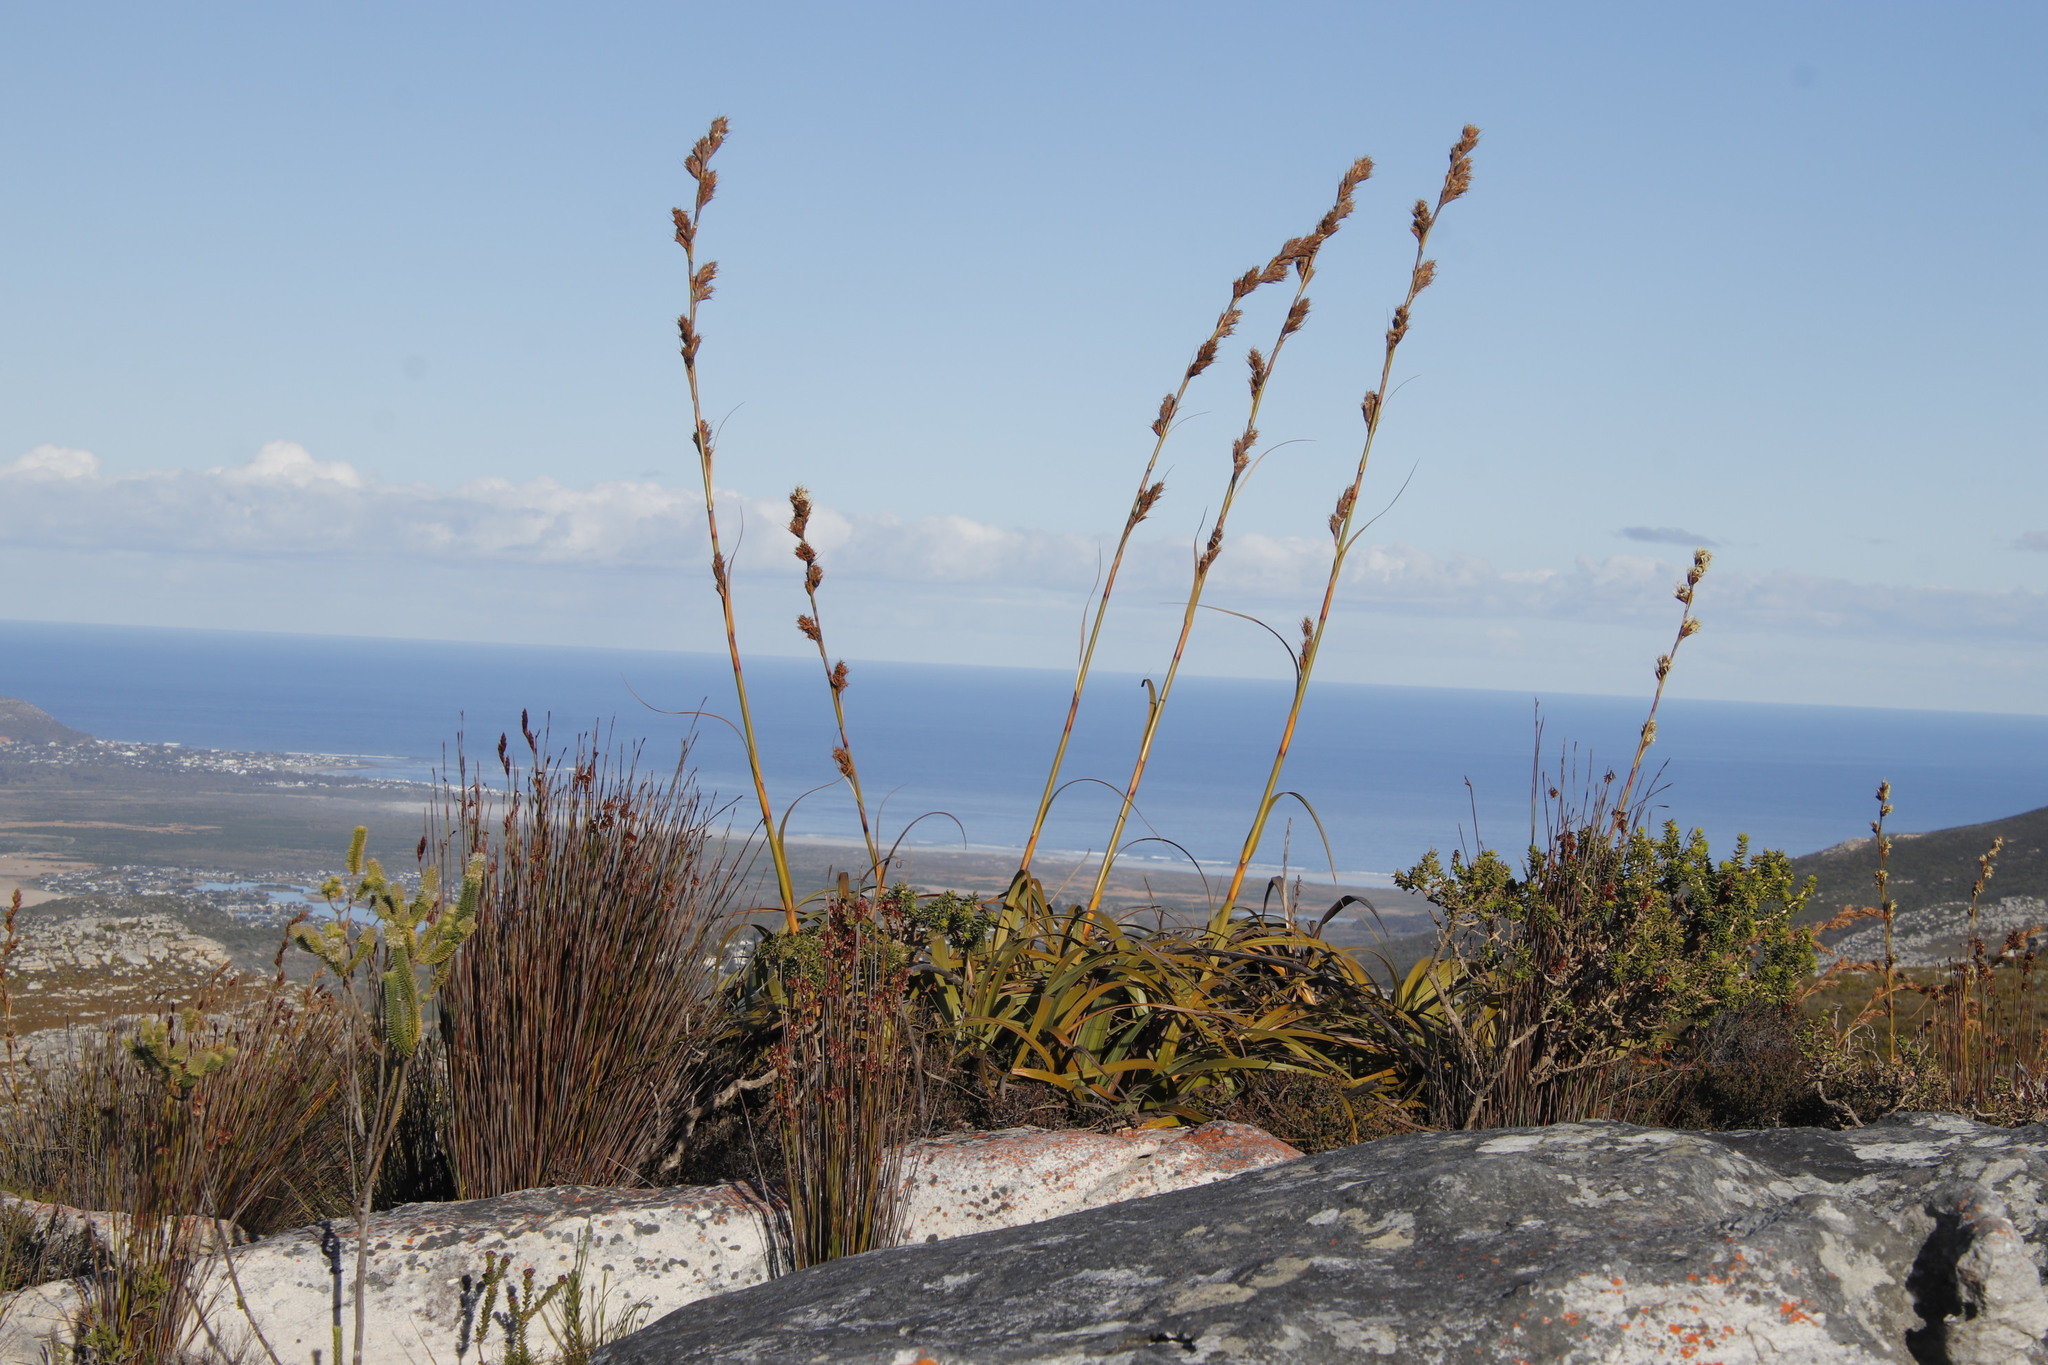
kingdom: Plantae
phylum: Tracheophyta
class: Liliopsida
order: Poales
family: Cyperaceae
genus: Tetraria
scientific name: Tetraria thermalis
